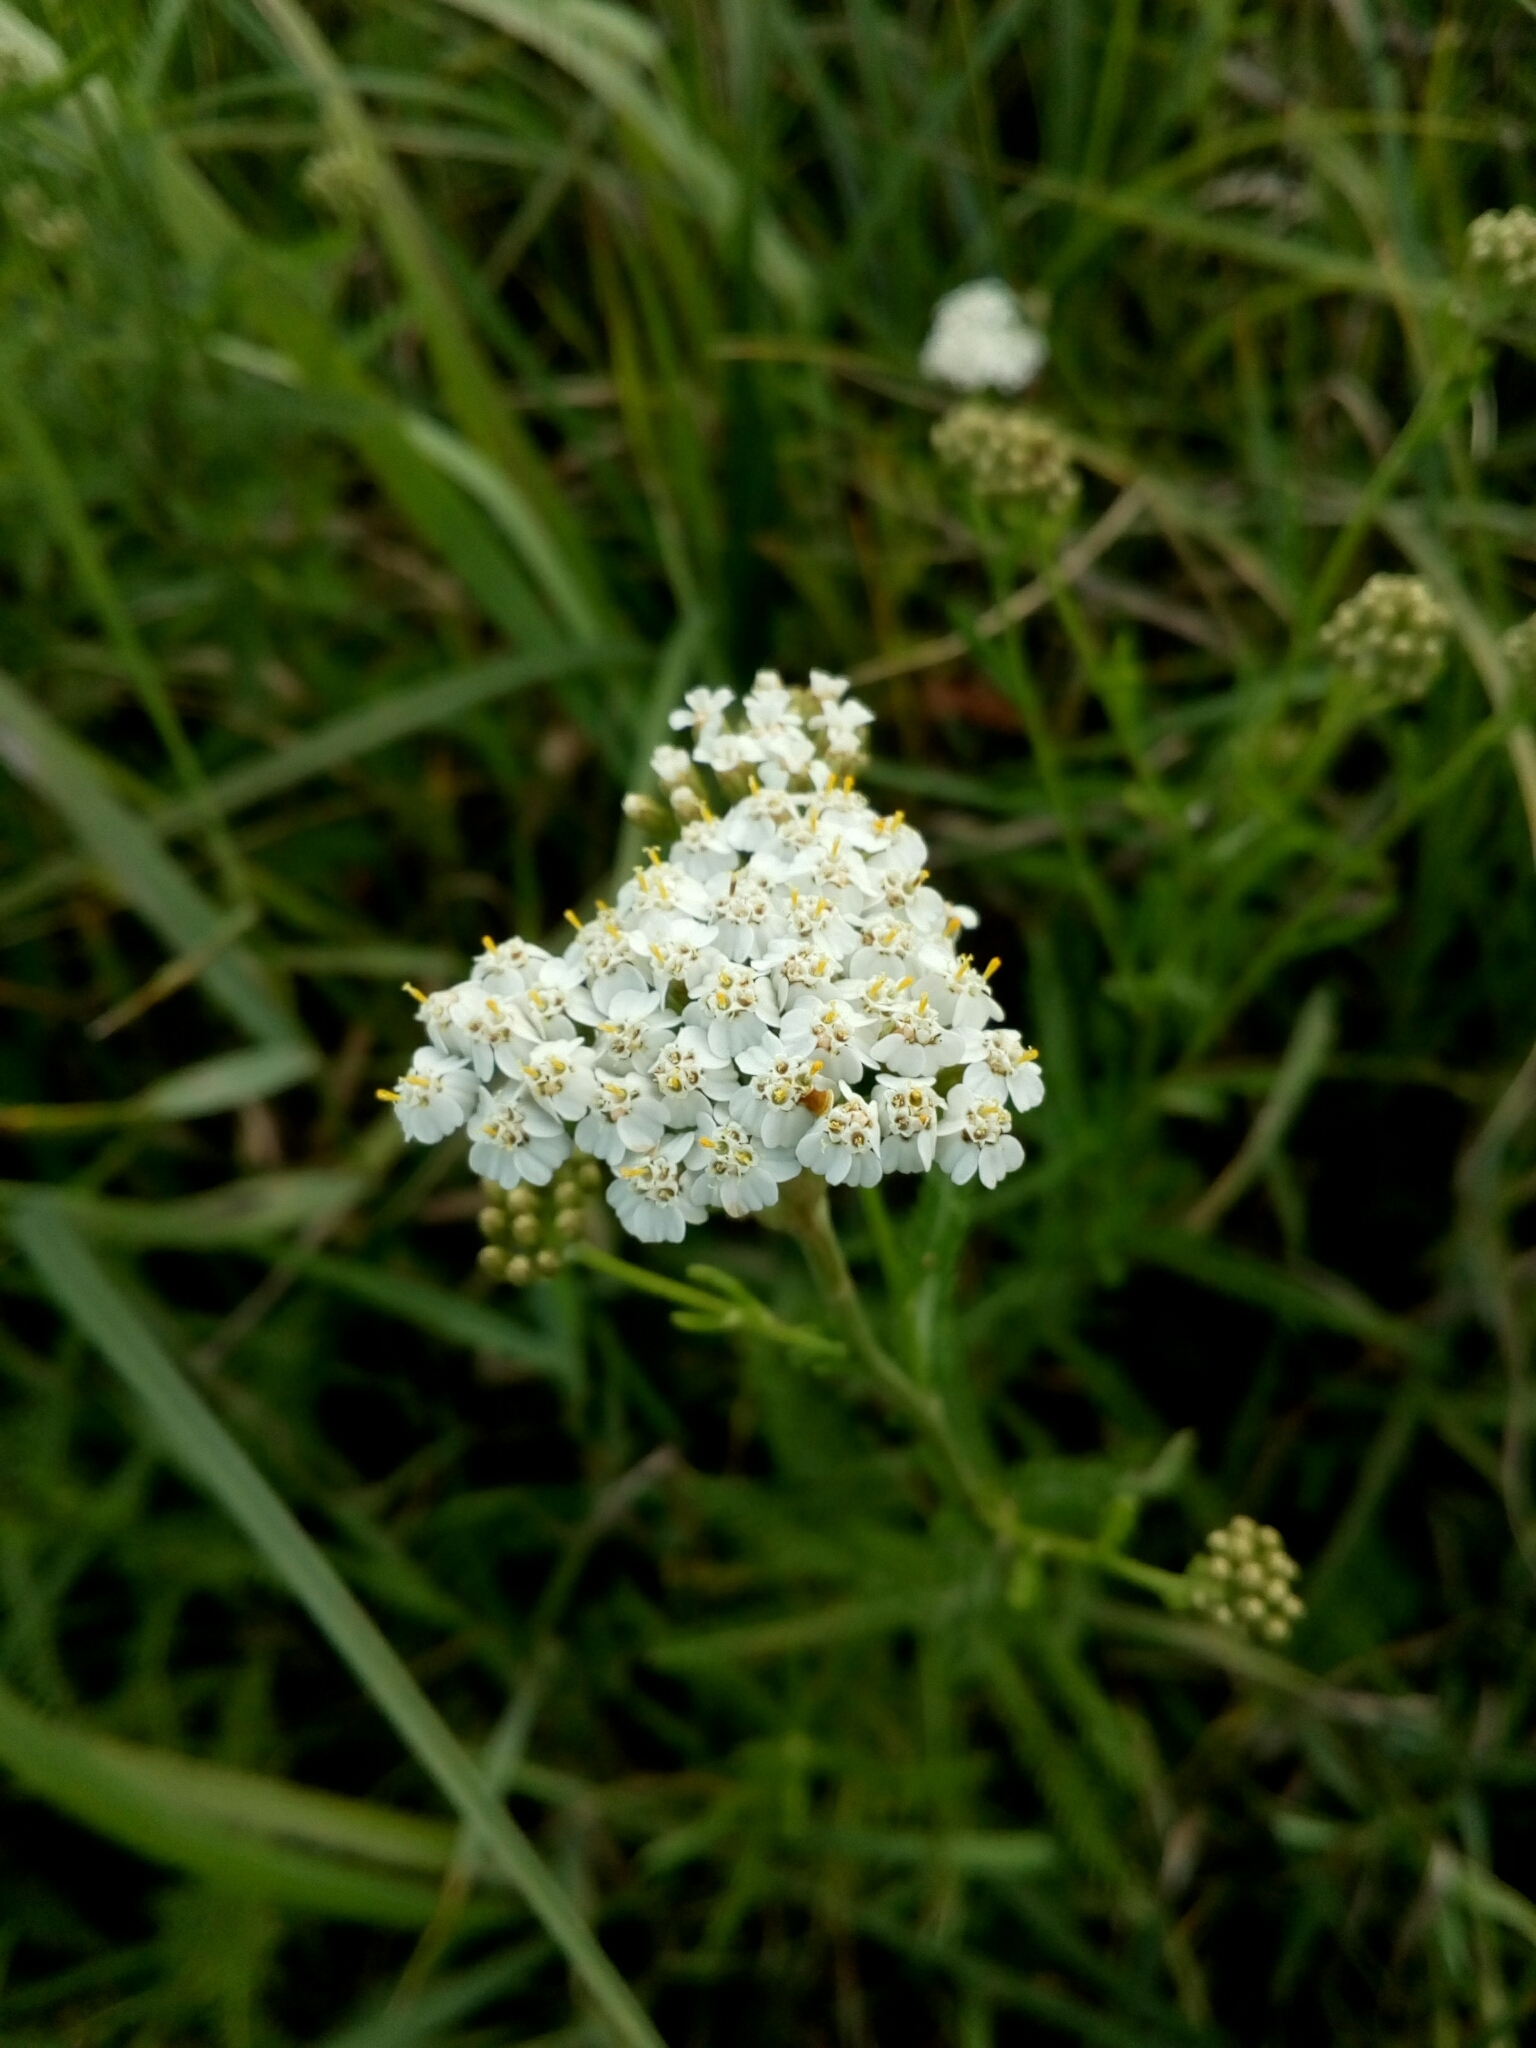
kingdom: Plantae
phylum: Tracheophyta
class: Magnoliopsida
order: Asterales
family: Asteraceae
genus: Achillea
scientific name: Achillea millefolium
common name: Yarrow
